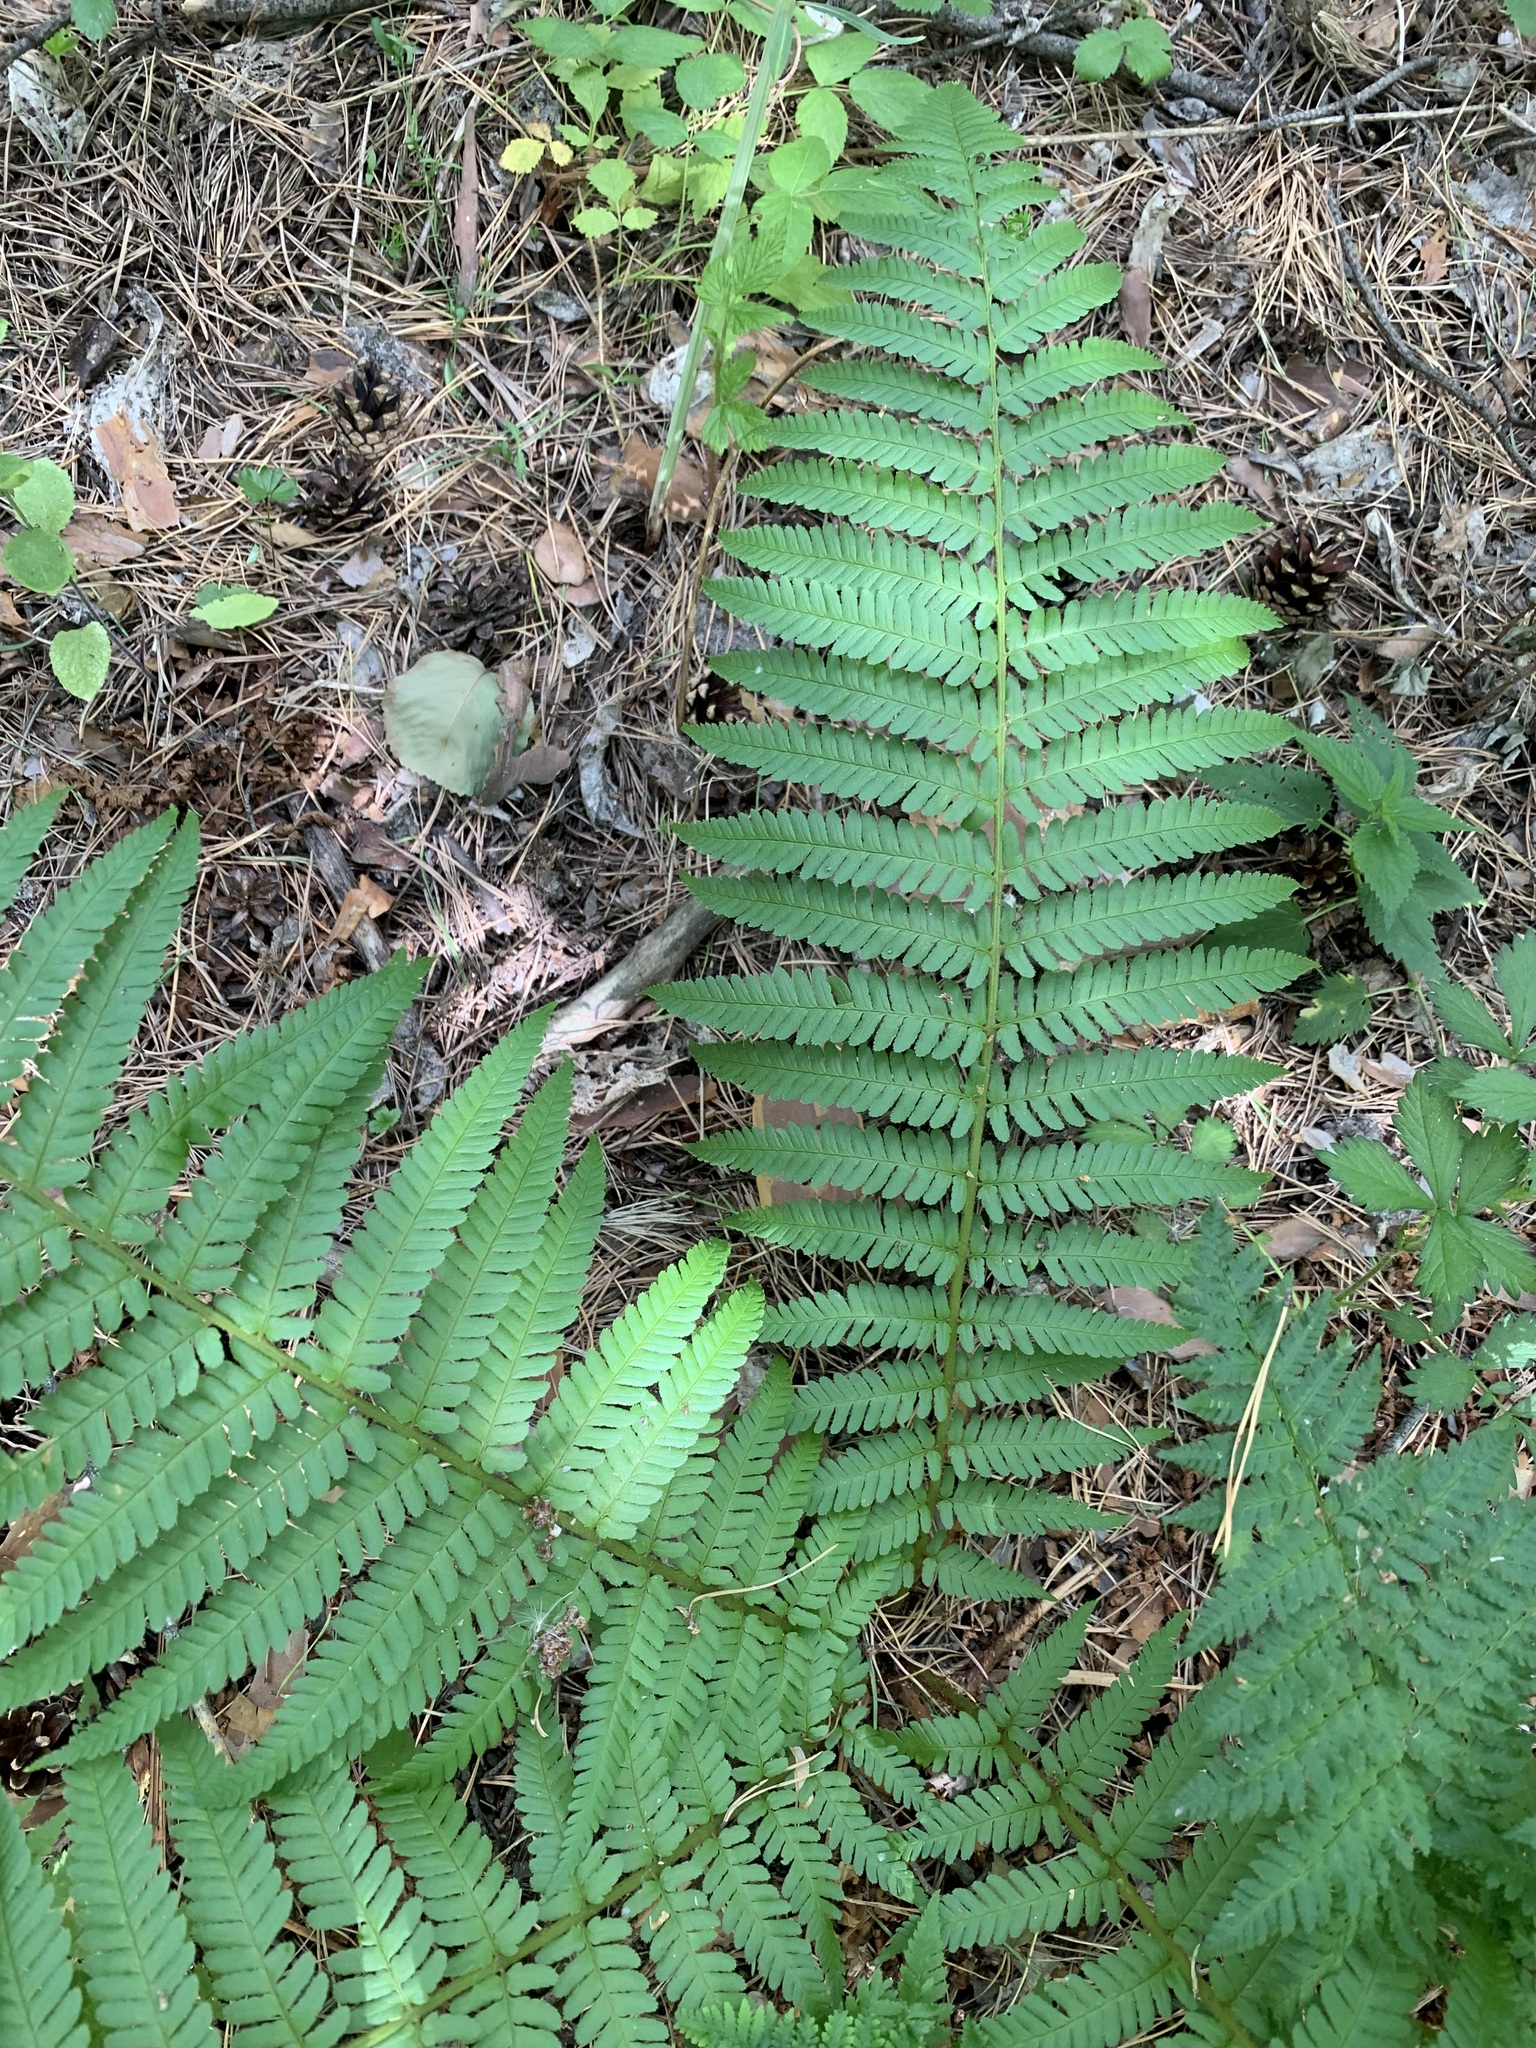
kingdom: Plantae
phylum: Tracheophyta
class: Polypodiopsida
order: Polypodiales
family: Dryopteridaceae
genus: Dryopteris
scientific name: Dryopteris filix-mas
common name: Male fern
